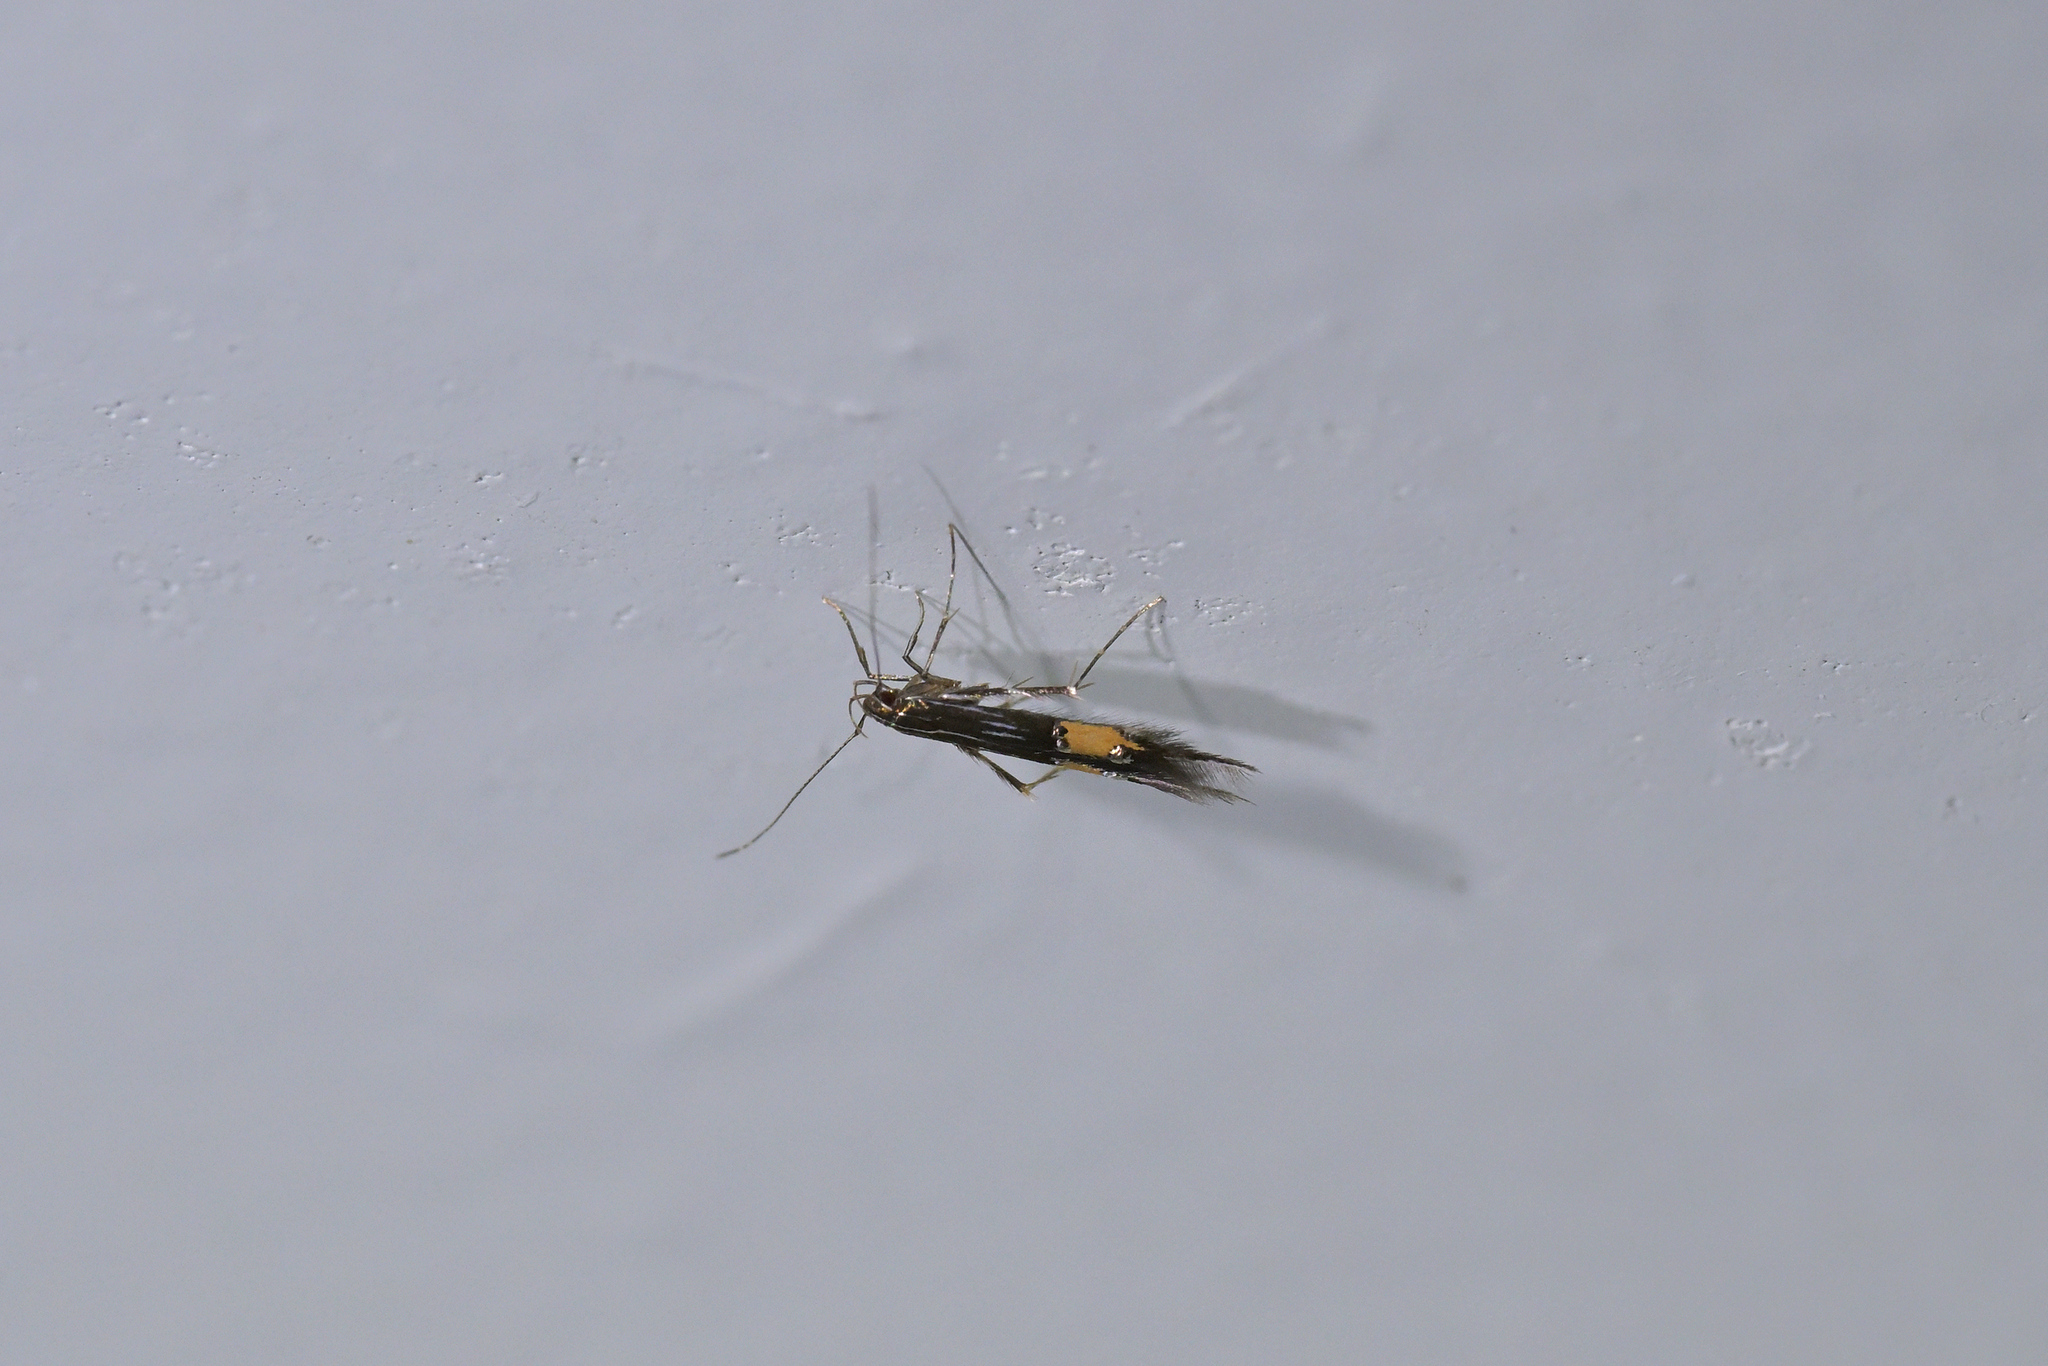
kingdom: Animalia
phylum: Arthropoda
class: Insecta
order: Lepidoptera
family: Cosmopterigidae
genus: Cosmopterix
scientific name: Cosmopterix attenuatella
